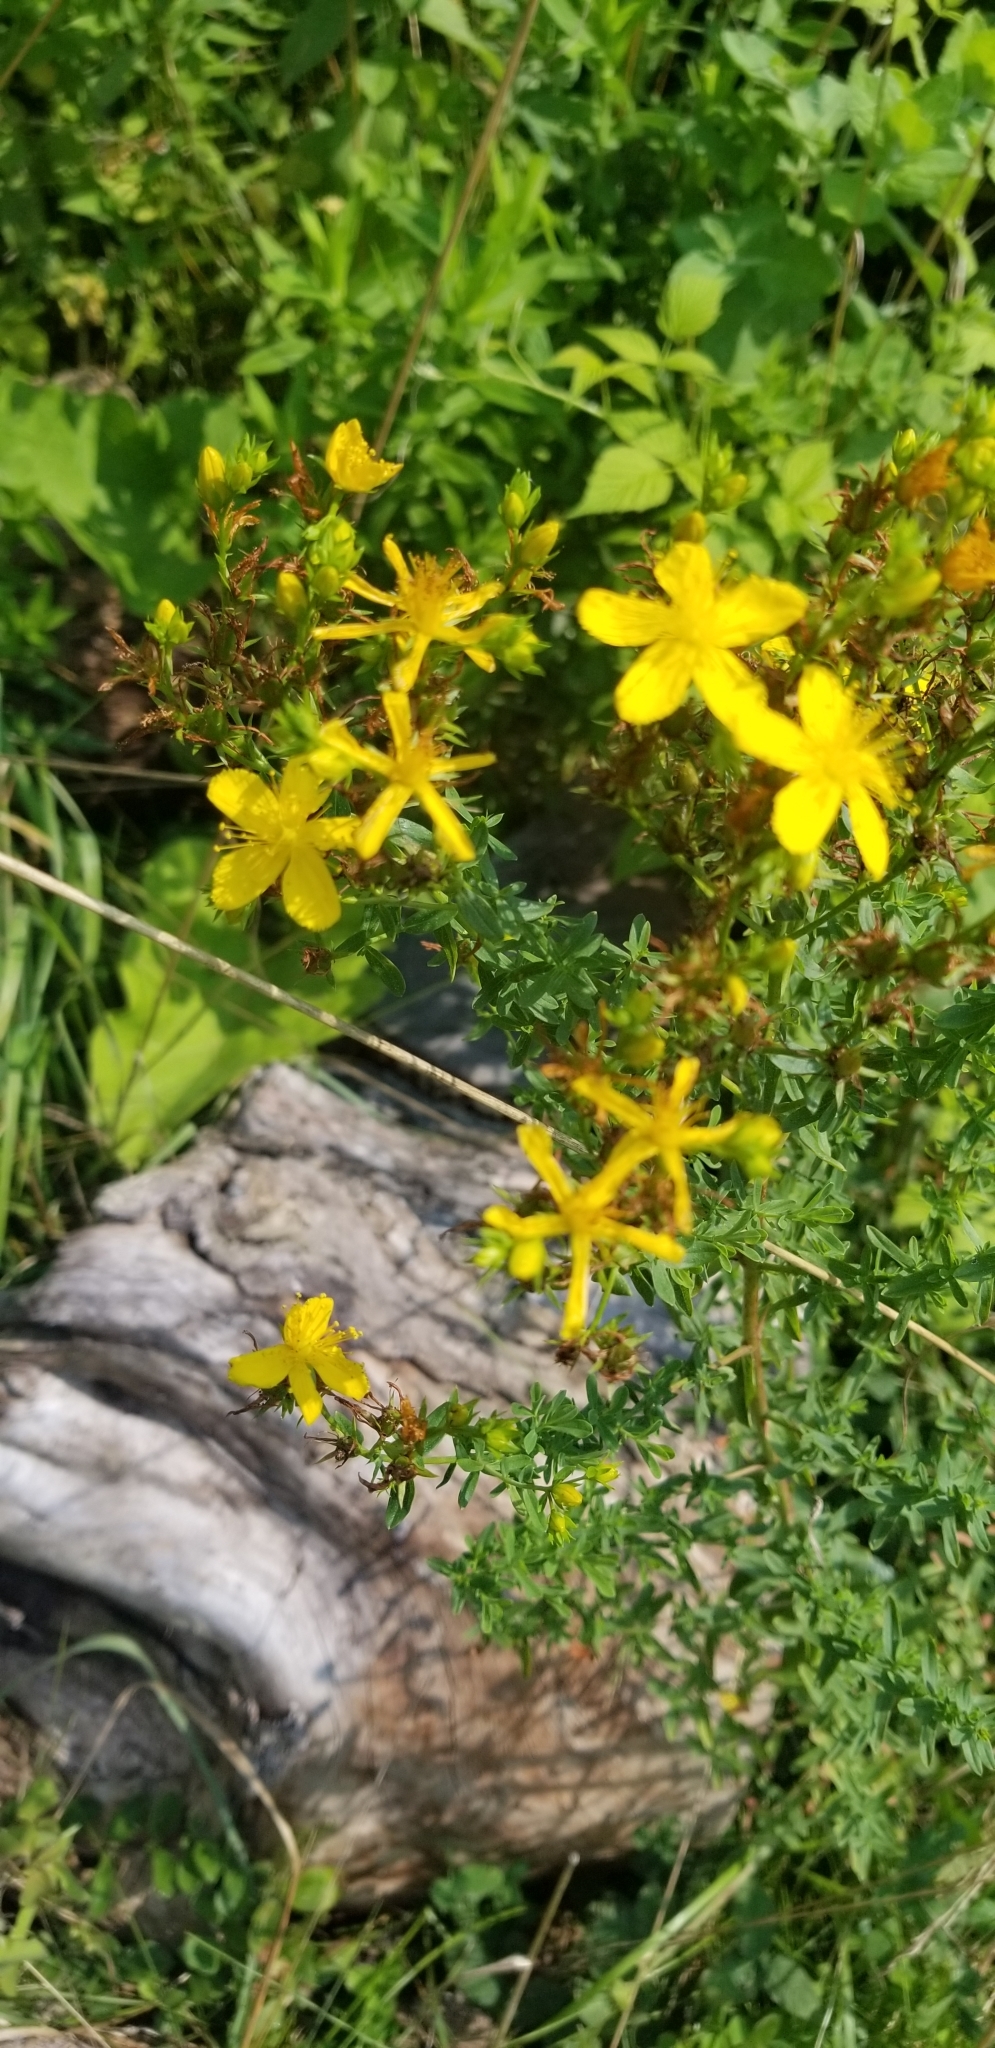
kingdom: Plantae
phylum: Tracheophyta
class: Magnoliopsida
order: Malpighiales
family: Hypericaceae
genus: Hypericum
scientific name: Hypericum perforatum
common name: Common st. johnswort
